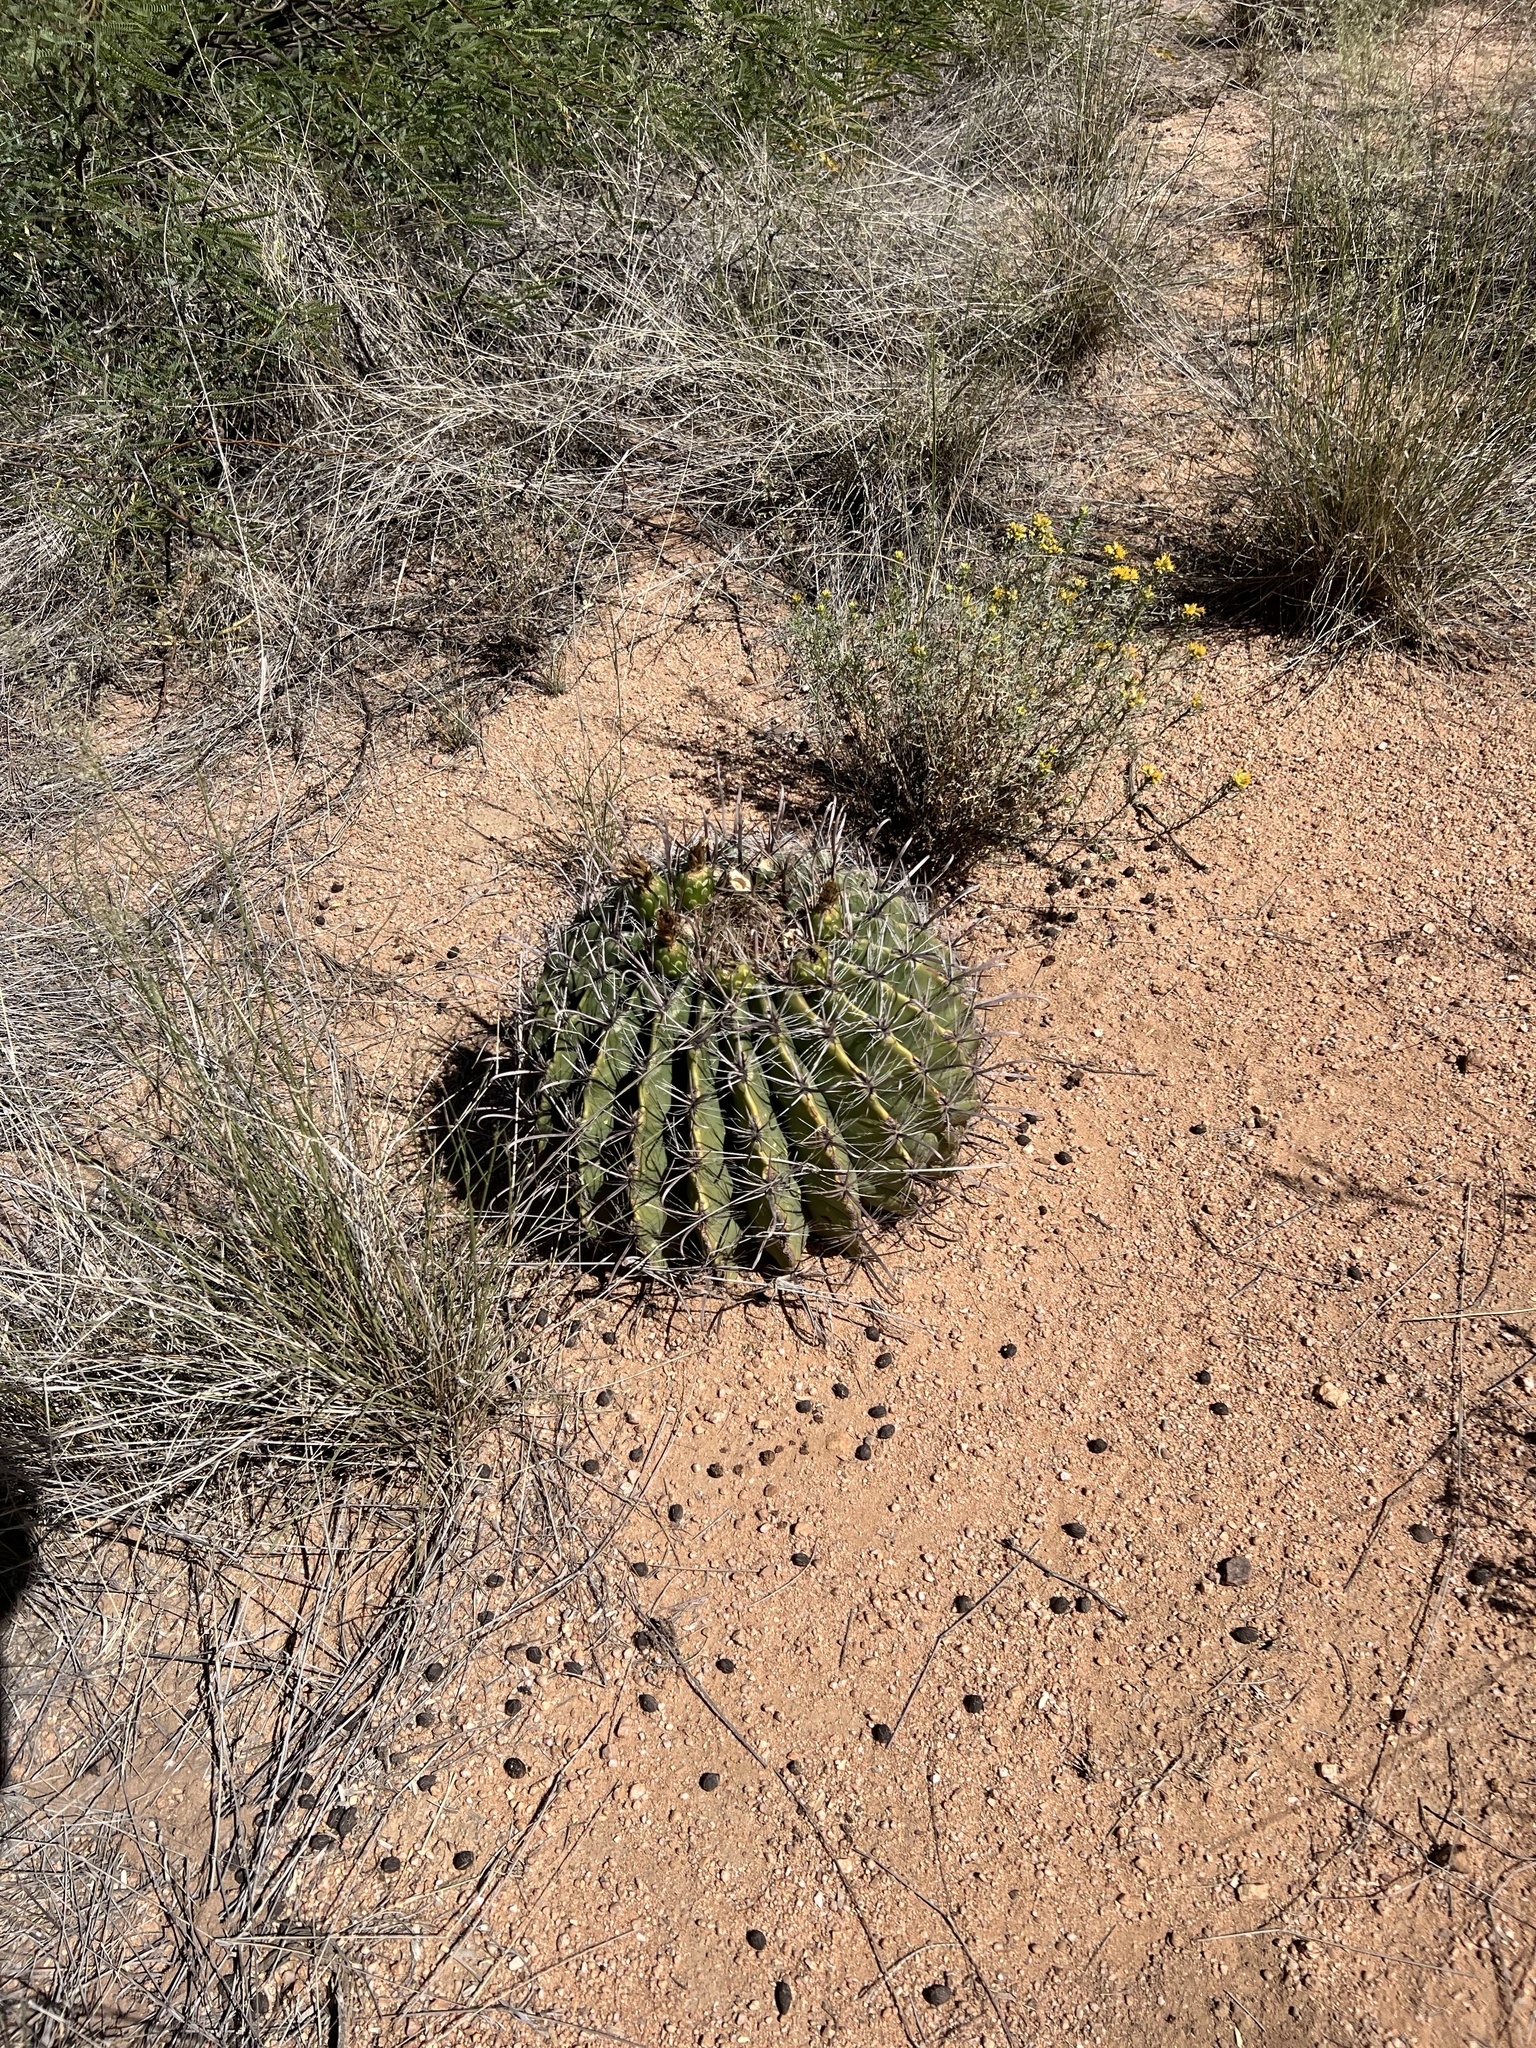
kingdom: Plantae
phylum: Tracheophyta
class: Magnoliopsida
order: Caryophyllales
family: Cactaceae
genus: Ferocactus
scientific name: Ferocactus wislizeni
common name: Candy barrel cactus
